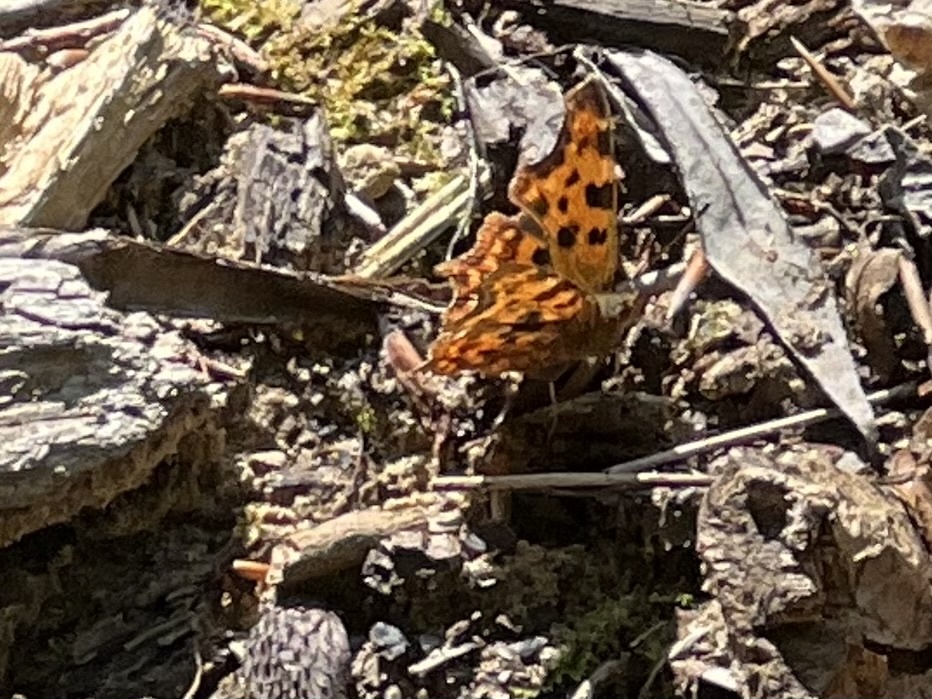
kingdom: Animalia
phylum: Arthropoda
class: Insecta
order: Lepidoptera
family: Nymphalidae
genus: Polygonia
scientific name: Polygonia c-album
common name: Comma
